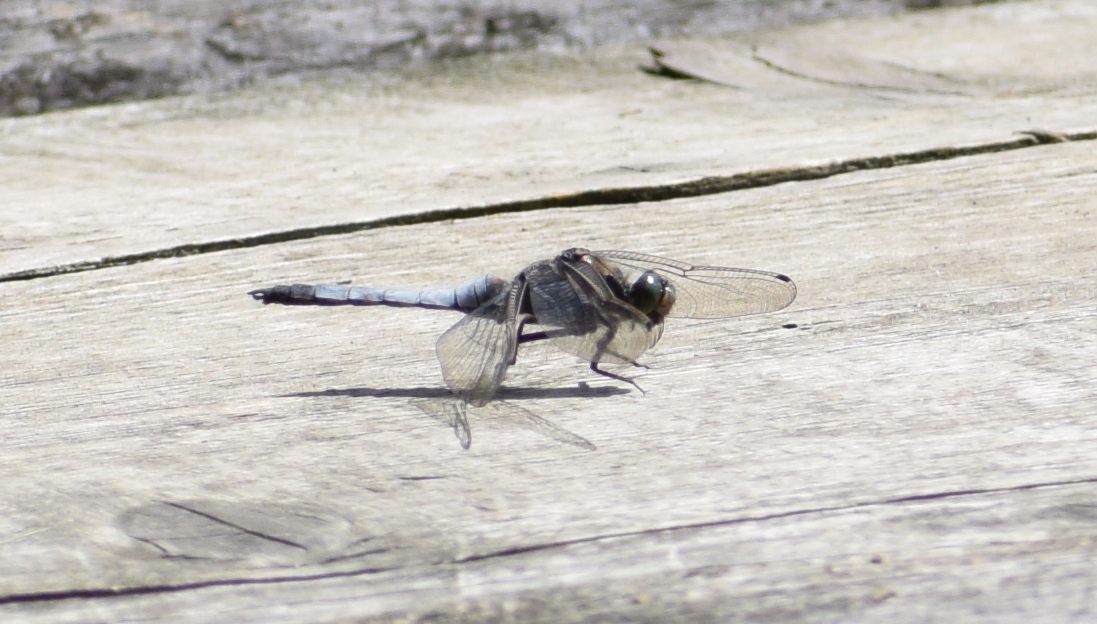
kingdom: Animalia
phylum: Arthropoda
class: Insecta
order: Odonata
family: Libellulidae
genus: Orthetrum
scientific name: Orthetrum cancellatum
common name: Black-tailed skimmer
